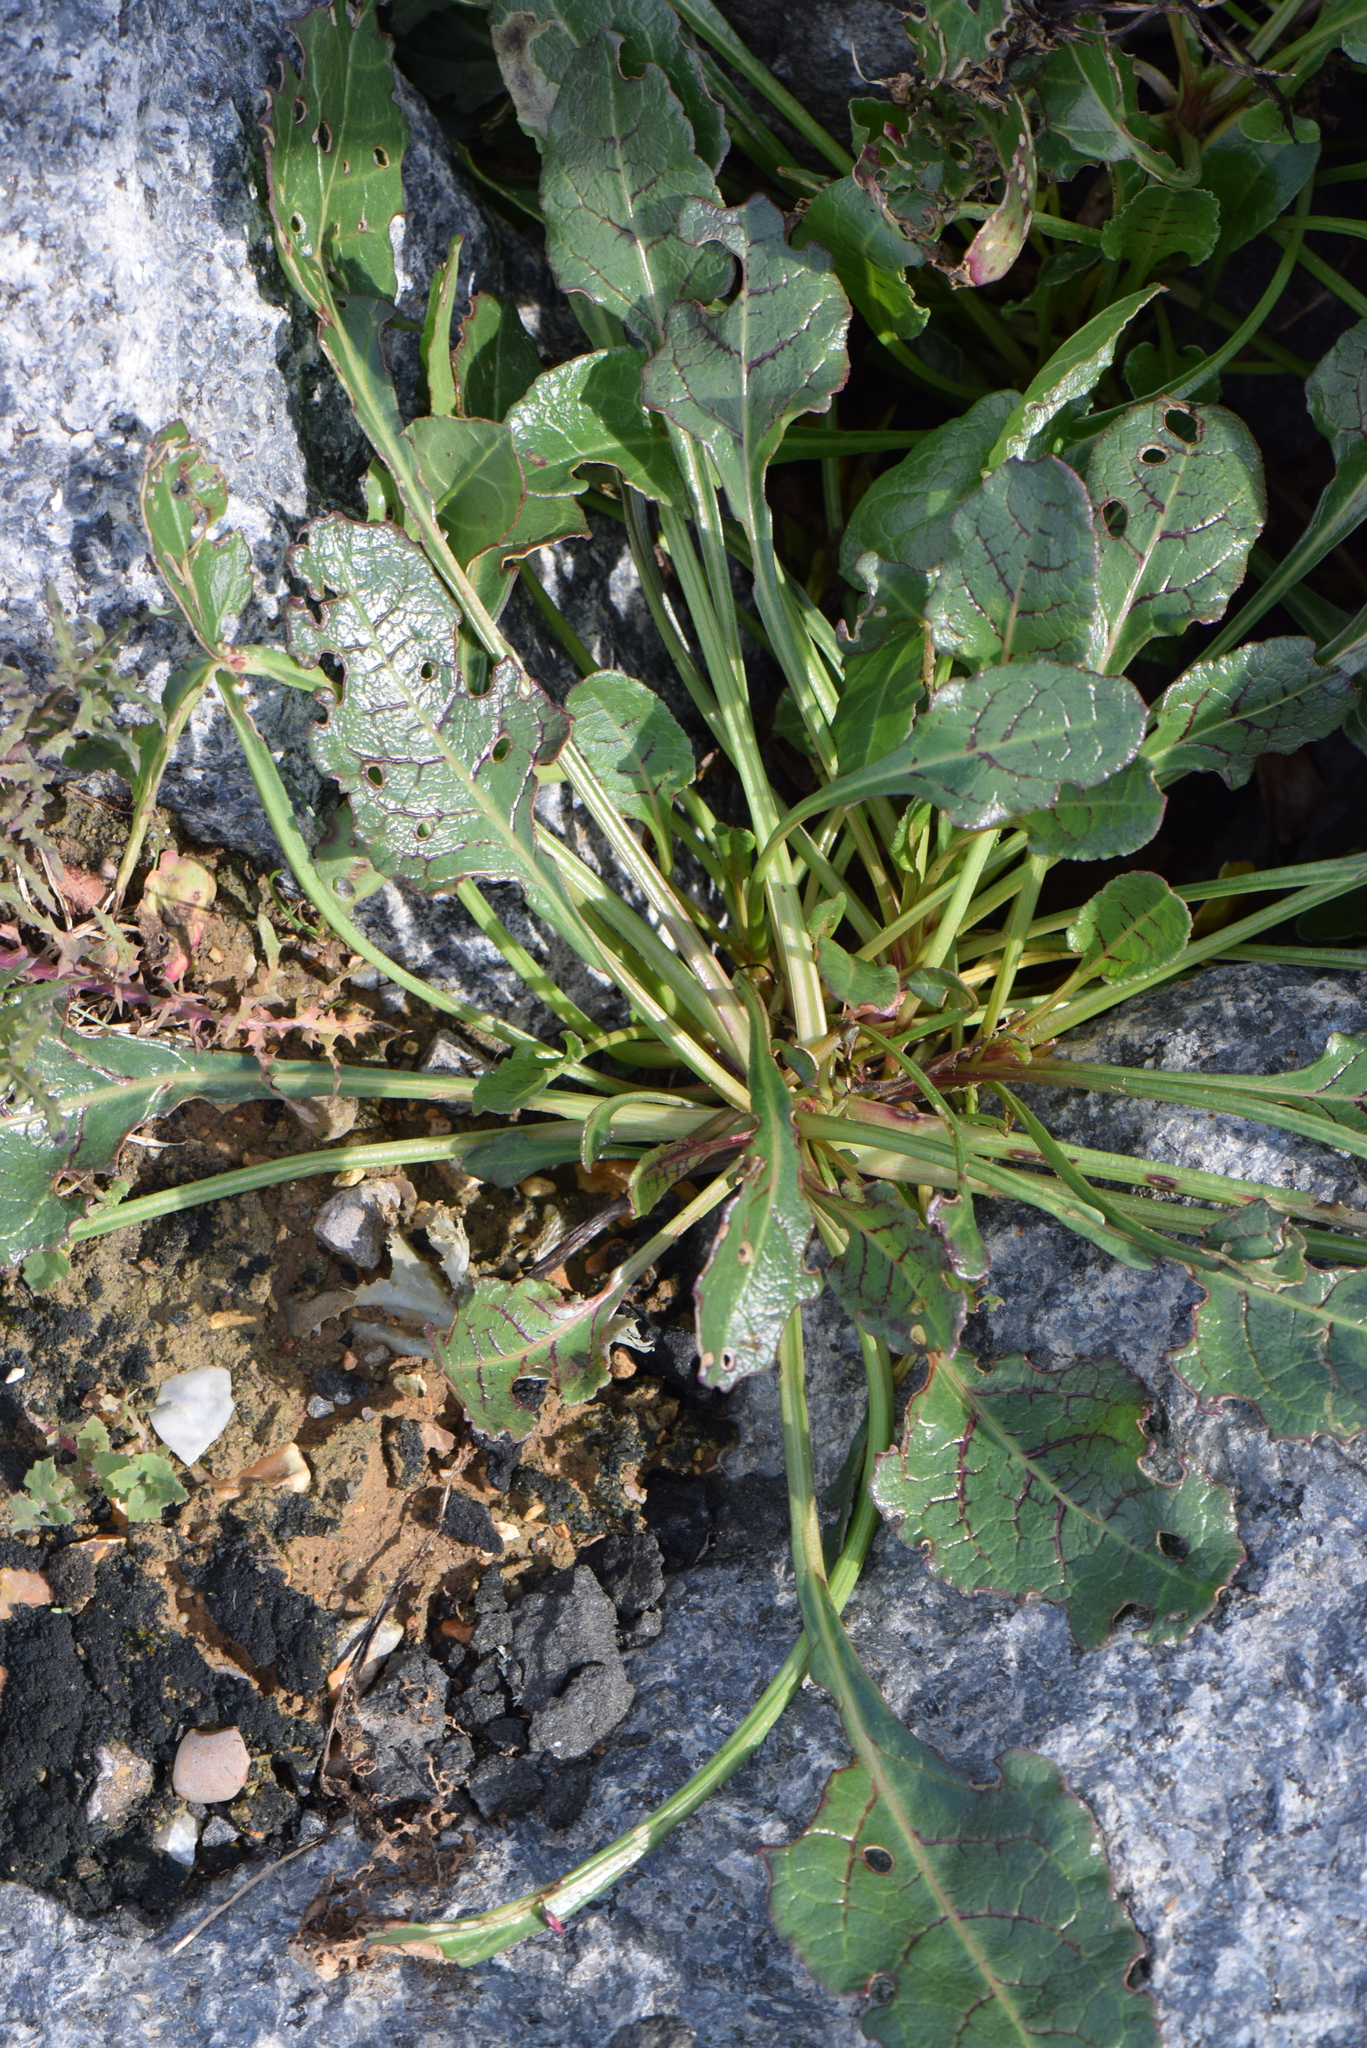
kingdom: Plantae
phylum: Tracheophyta
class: Magnoliopsida
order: Caryophyllales
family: Amaranthaceae
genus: Beta
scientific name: Beta vulgaris
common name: Beet
